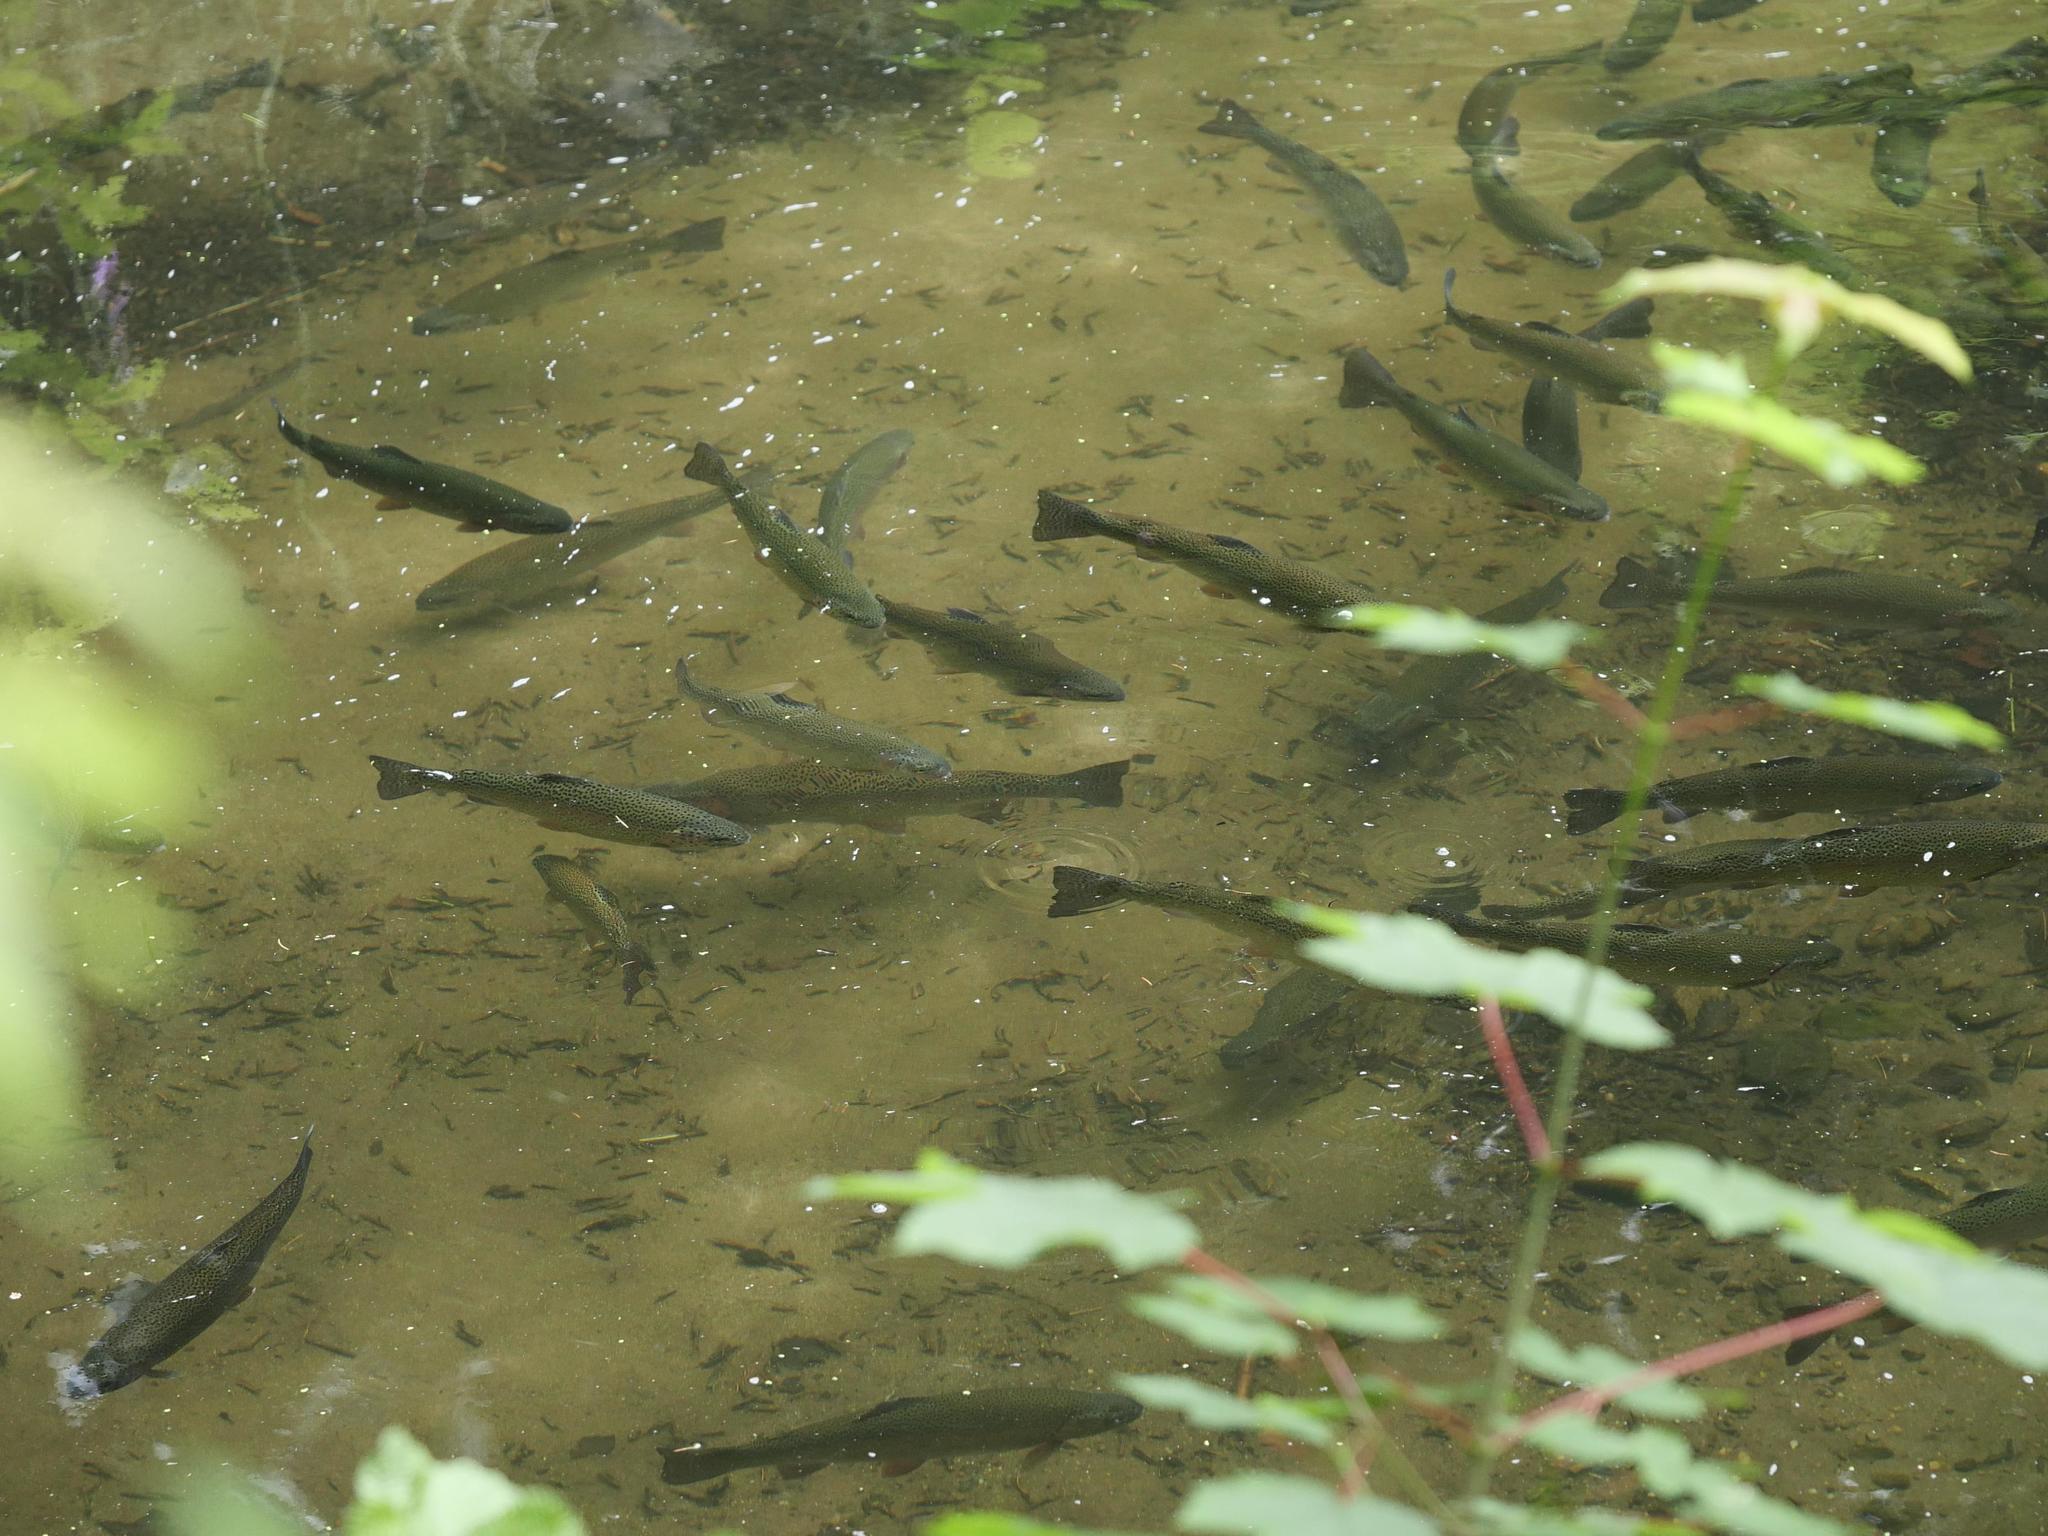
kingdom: Animalia
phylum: Chordata
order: Salmoniformes
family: Salmonidae
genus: Oncorhynchus
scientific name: Oncorhynchus mykiss
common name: Rainbow trout
